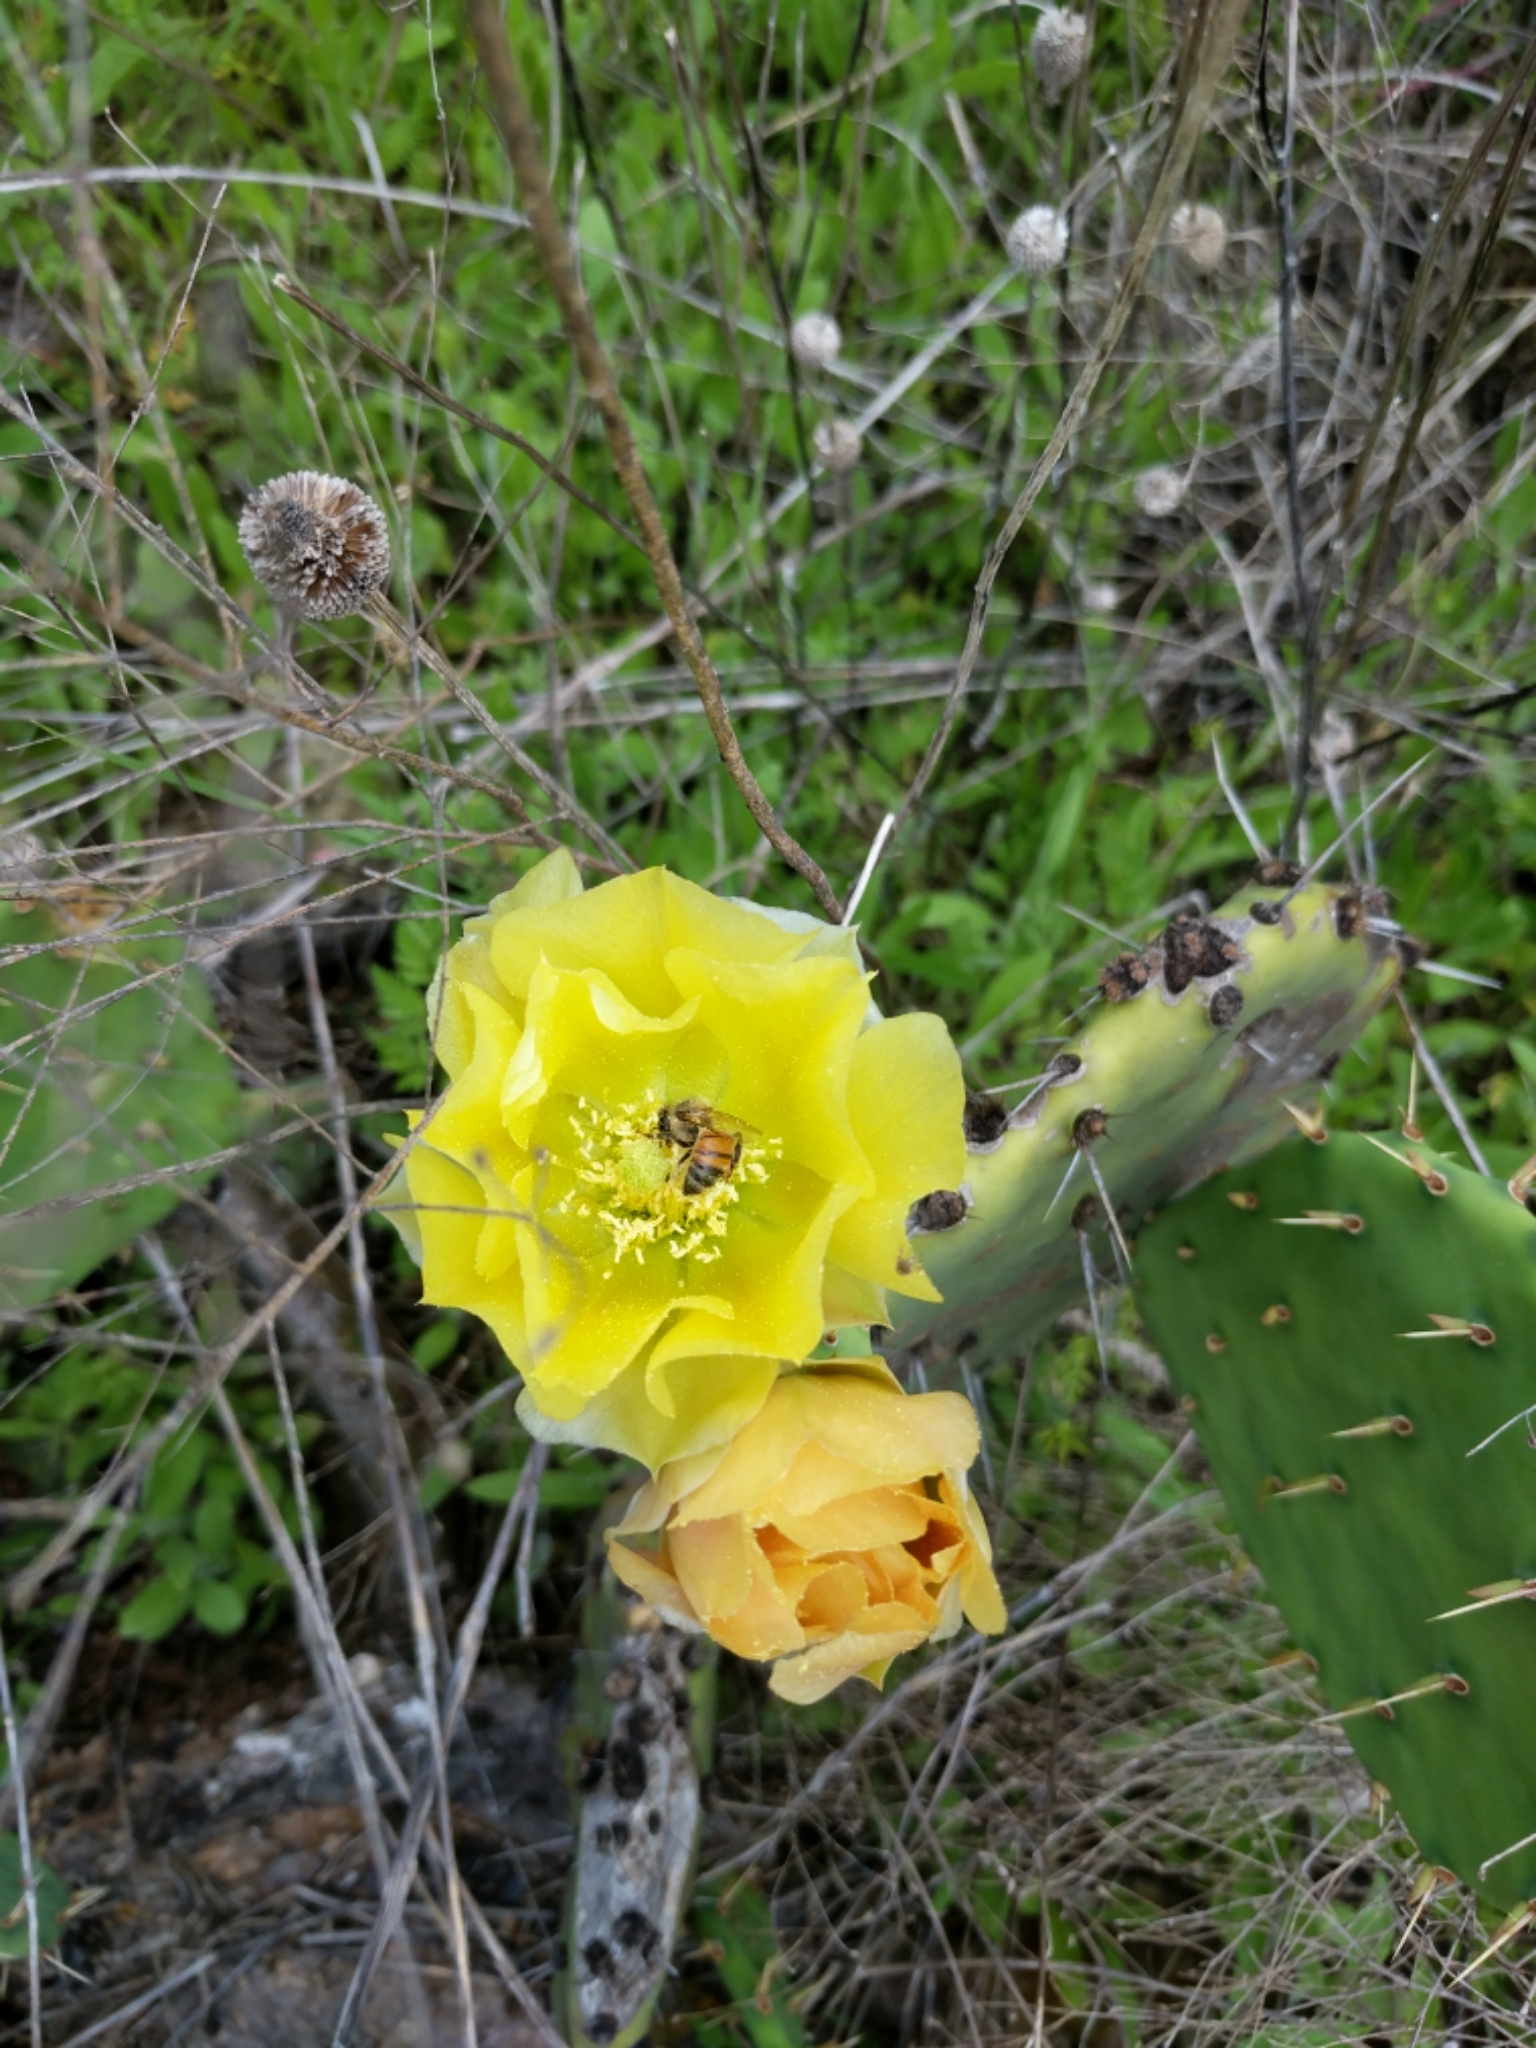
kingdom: Animalia
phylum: Arthropoda
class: Insecta
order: Hymenoptera
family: Apidae
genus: Apis
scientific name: Apis mellifera
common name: Honey bee
